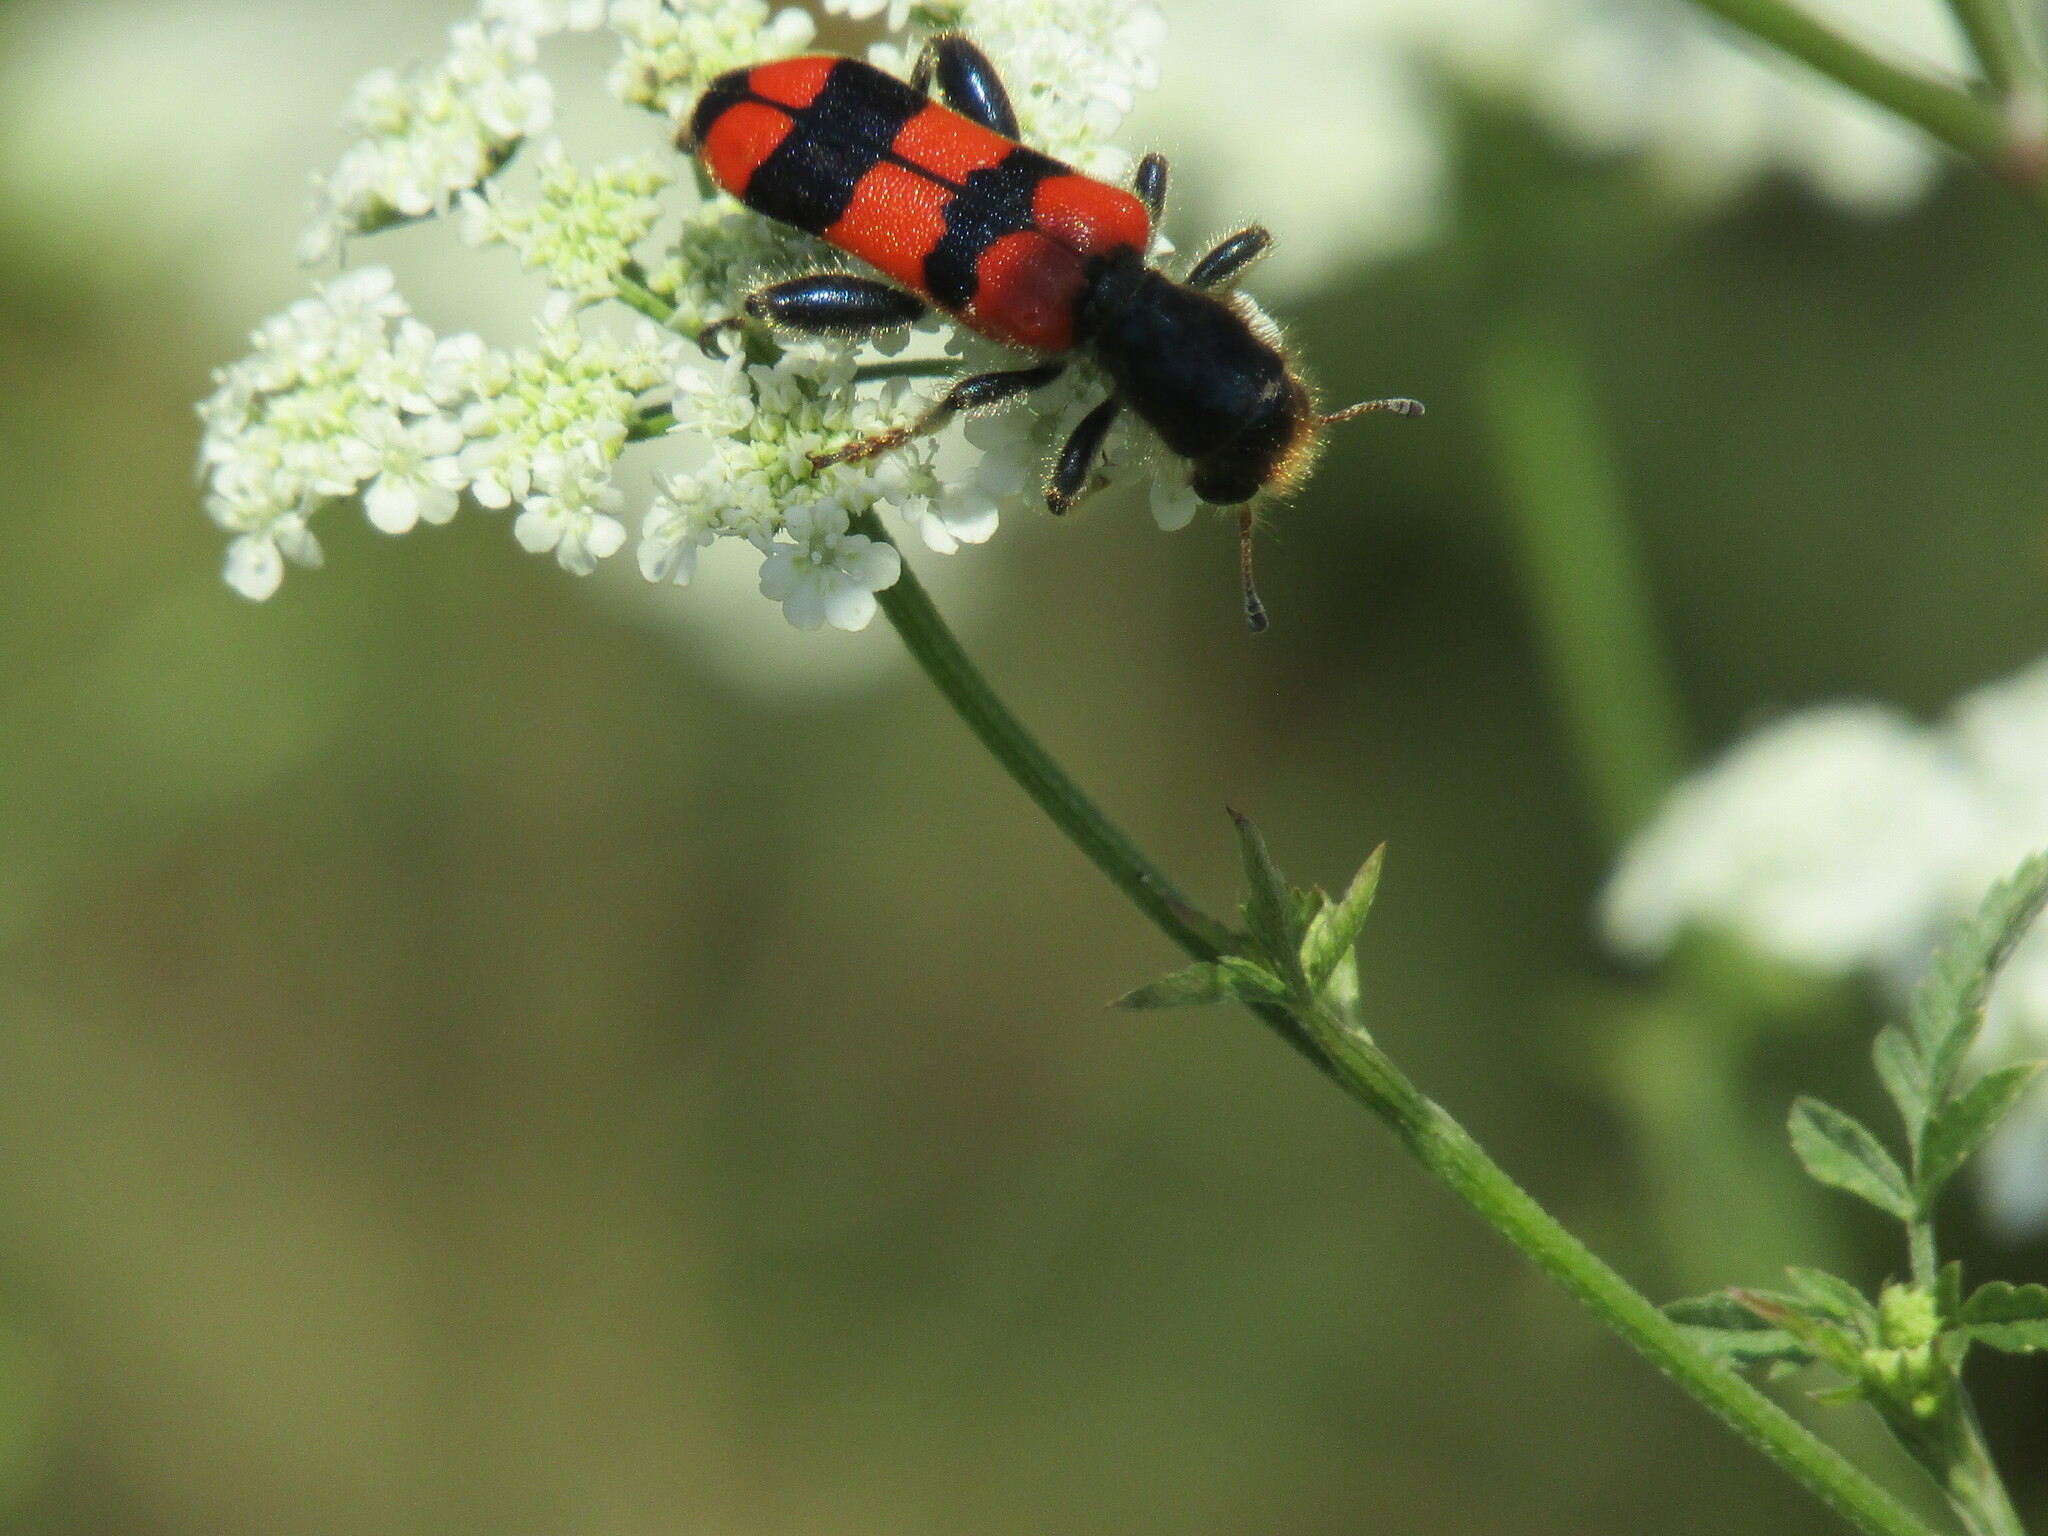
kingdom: Animalia
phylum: Arthropoda
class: Insecta
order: Coleoptera
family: Cleridae
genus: Trichodes
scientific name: Trichodes crabroniformis
